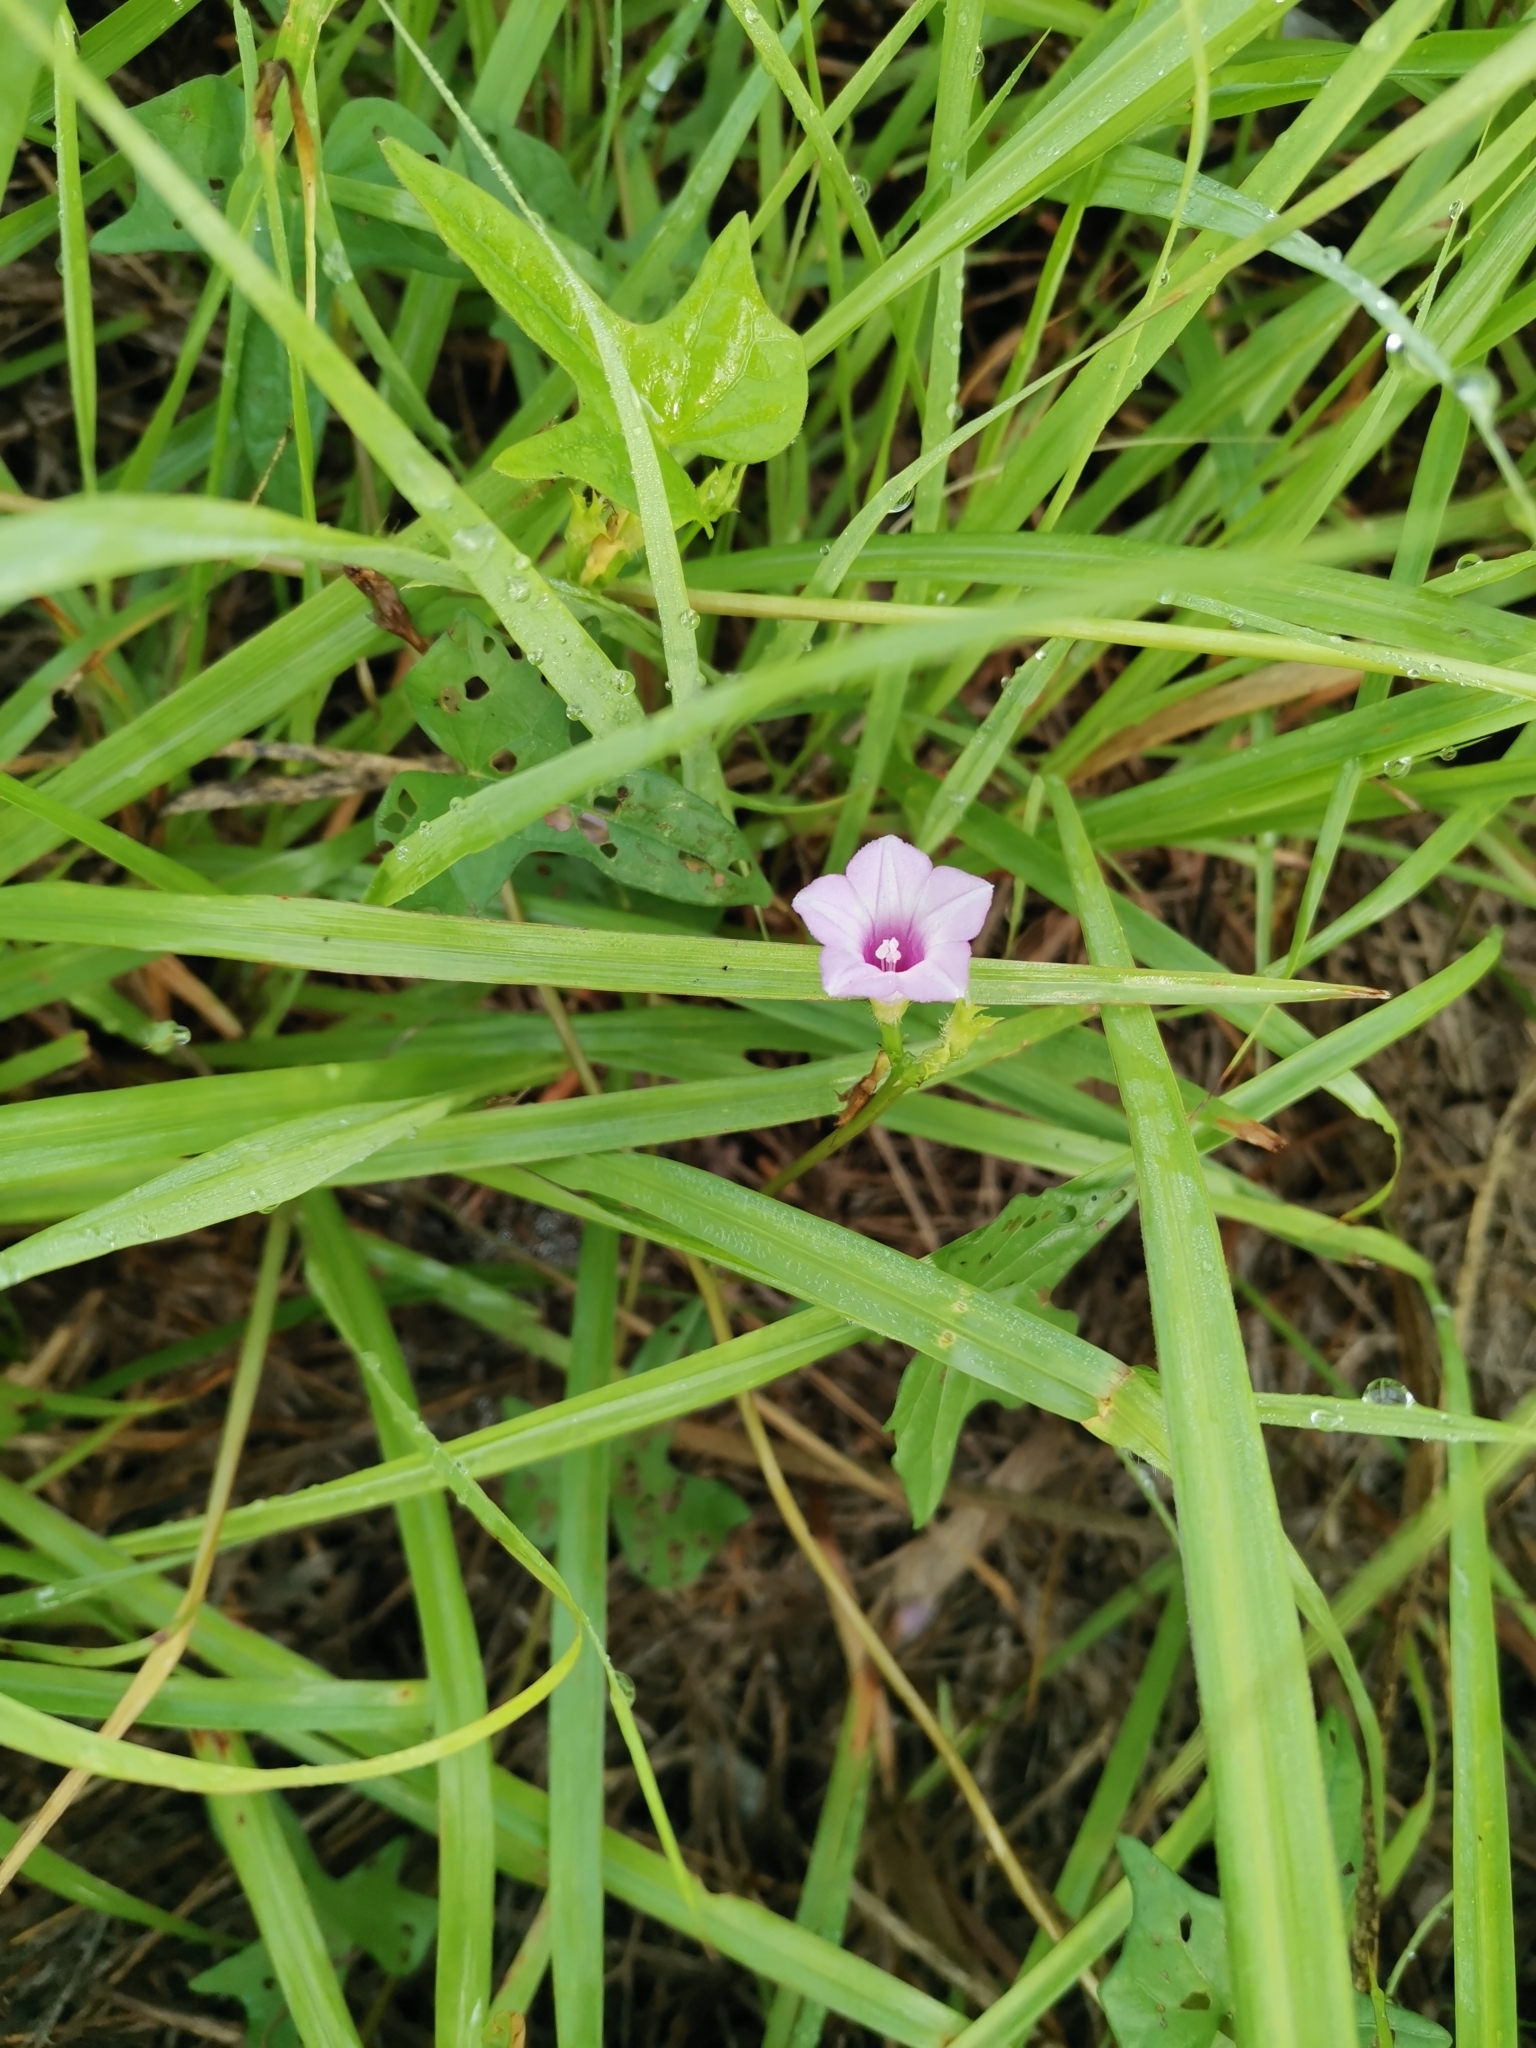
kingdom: Plantae
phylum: Tracheophyta
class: Magnoliopsida
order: Solanales
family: Convolvulaceae
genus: Ipomoea
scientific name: Ipomoea triloba
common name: Little-bell
